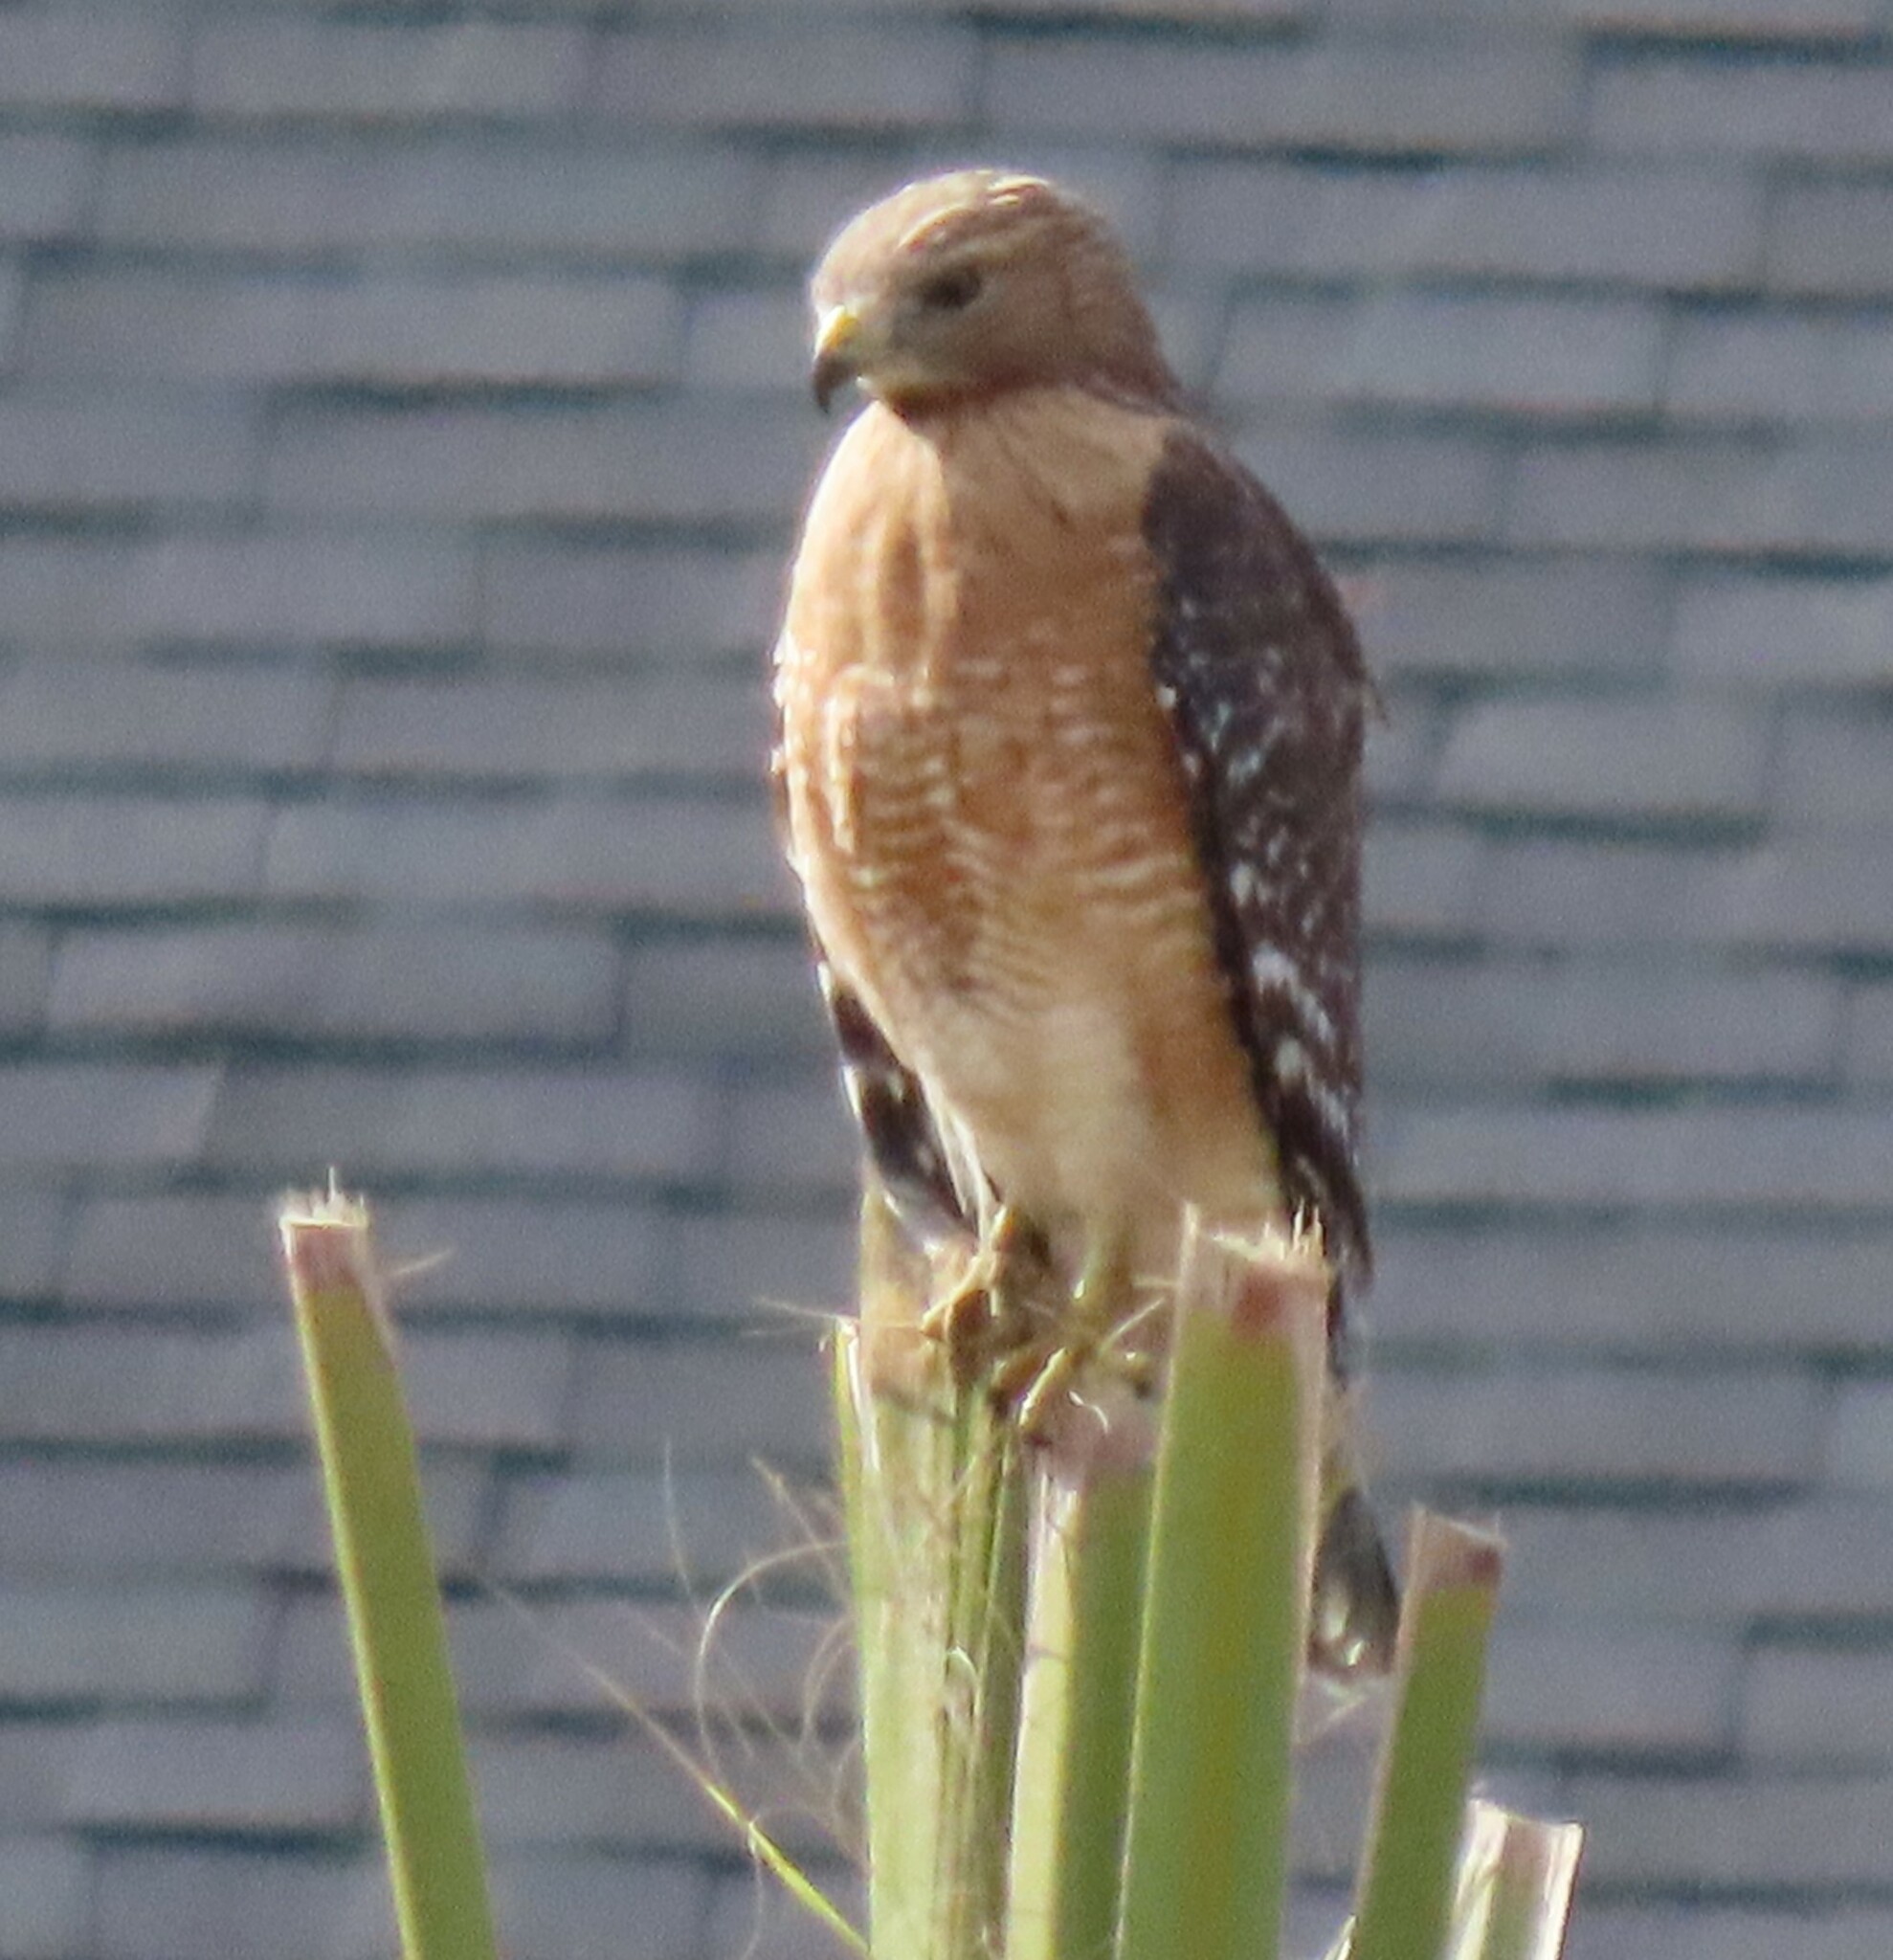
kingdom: Animalia
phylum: Chordata
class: Aves
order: Accipitriformes
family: Accipitridae
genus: Buteo
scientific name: Buteo lineatus
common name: Red-shouldered hawk
